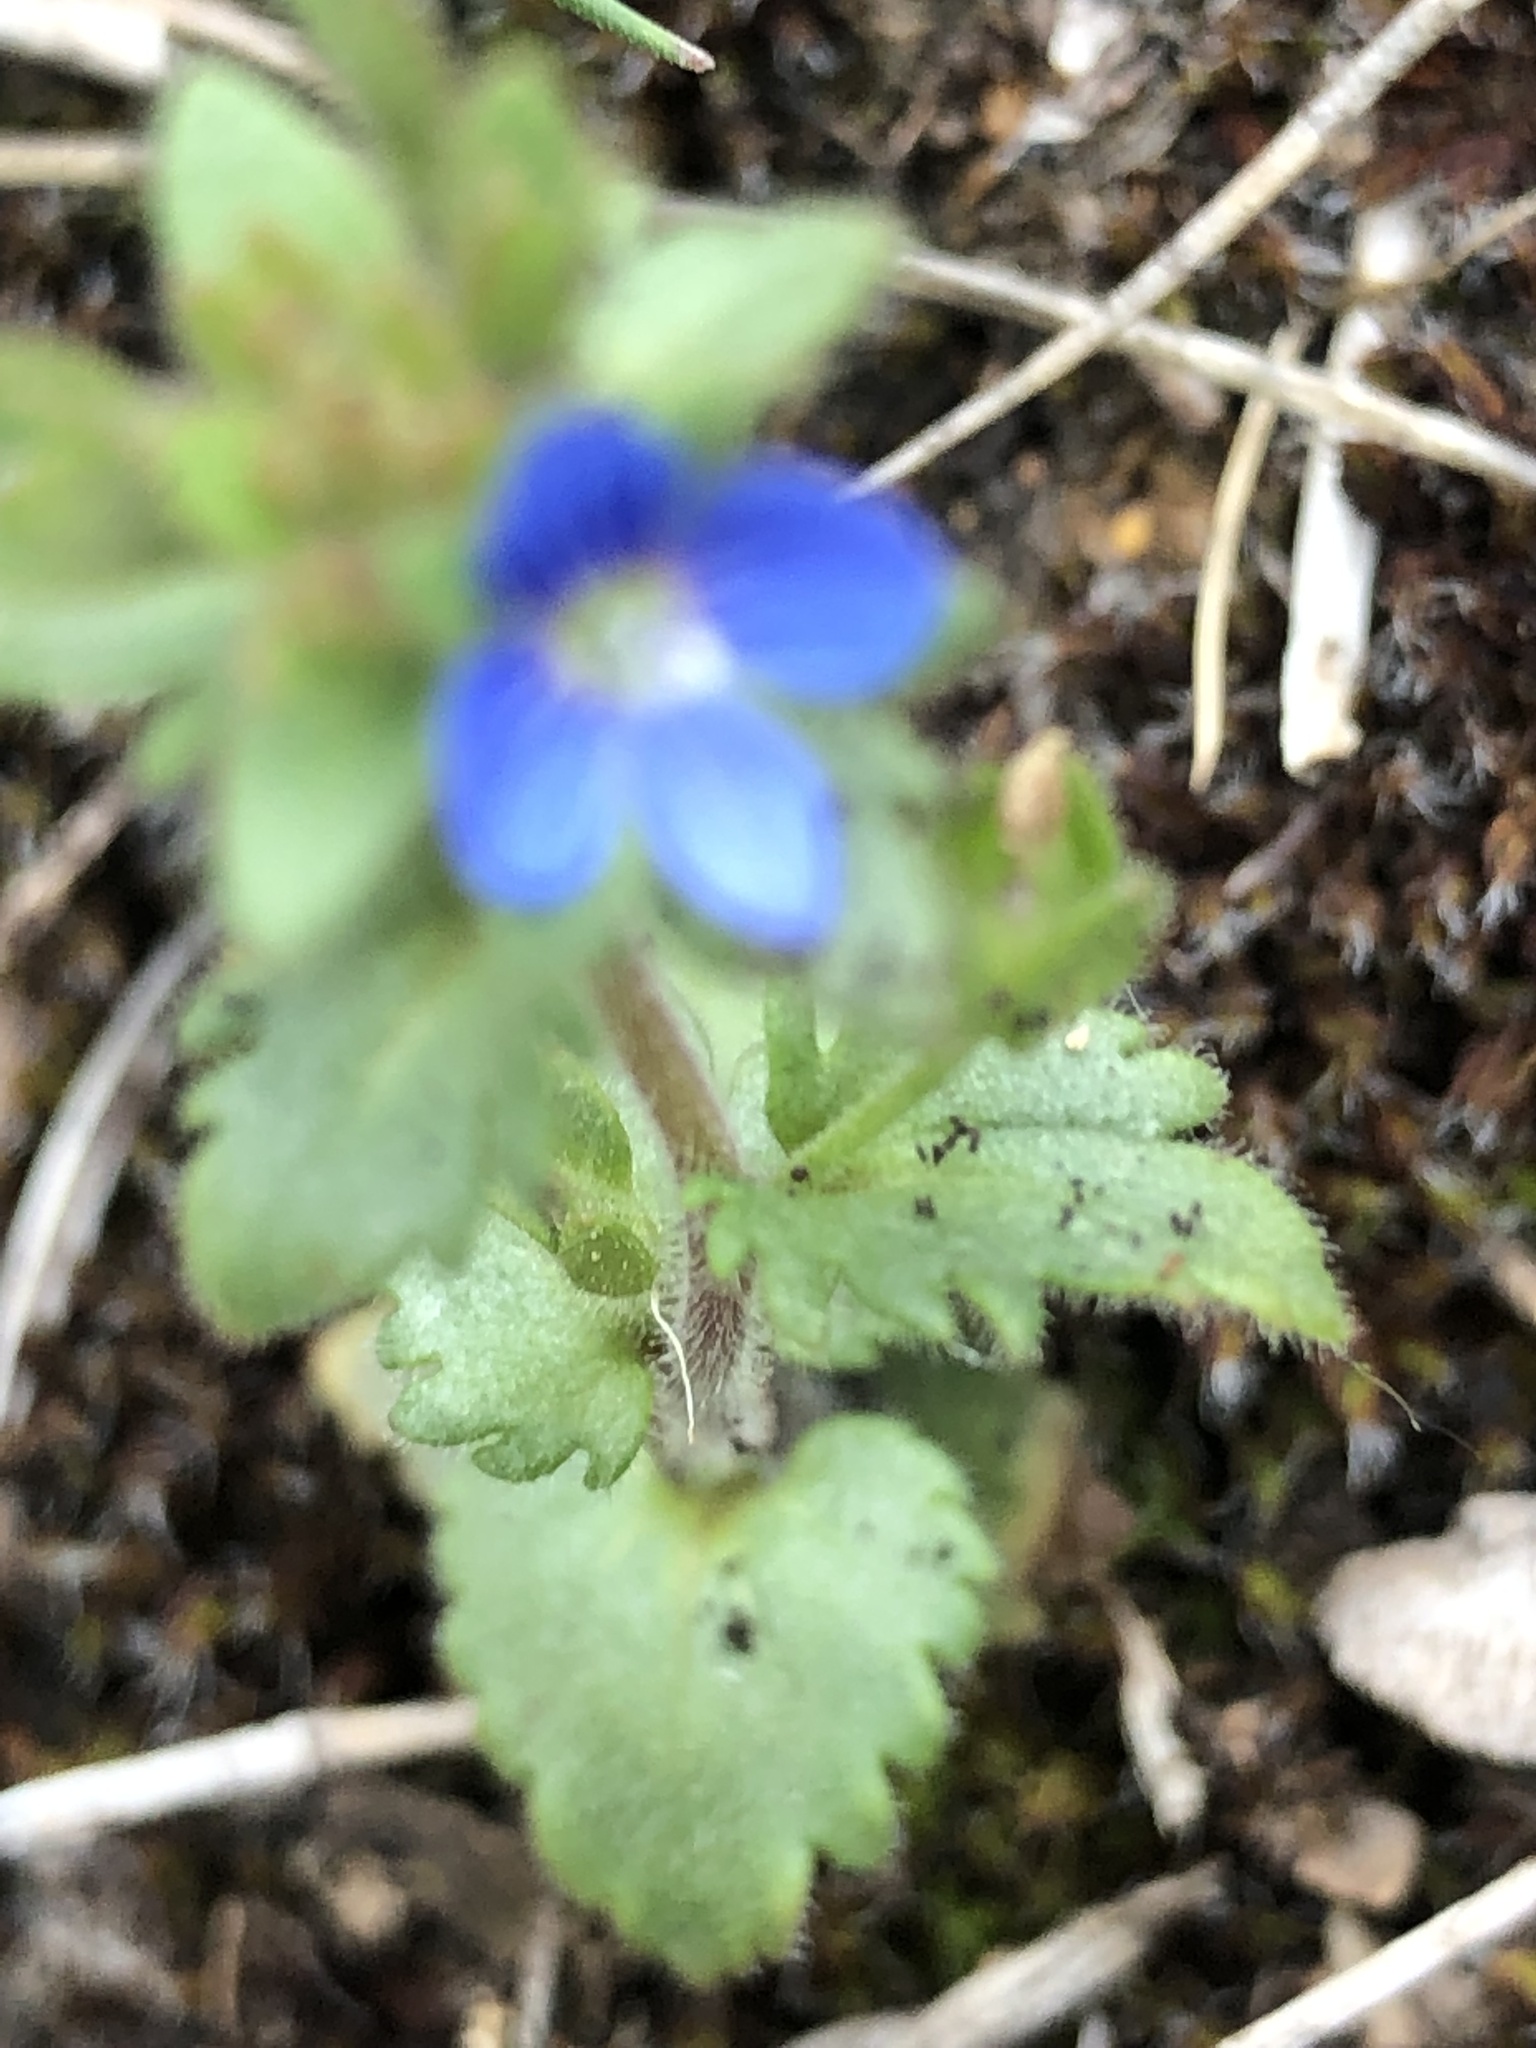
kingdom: Plantae
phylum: Tracheophyta
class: Magnoliopsida
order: Lamiales
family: Plantaginaceae
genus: Veronica
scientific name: Veronica praecox
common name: Breckland speedwell
